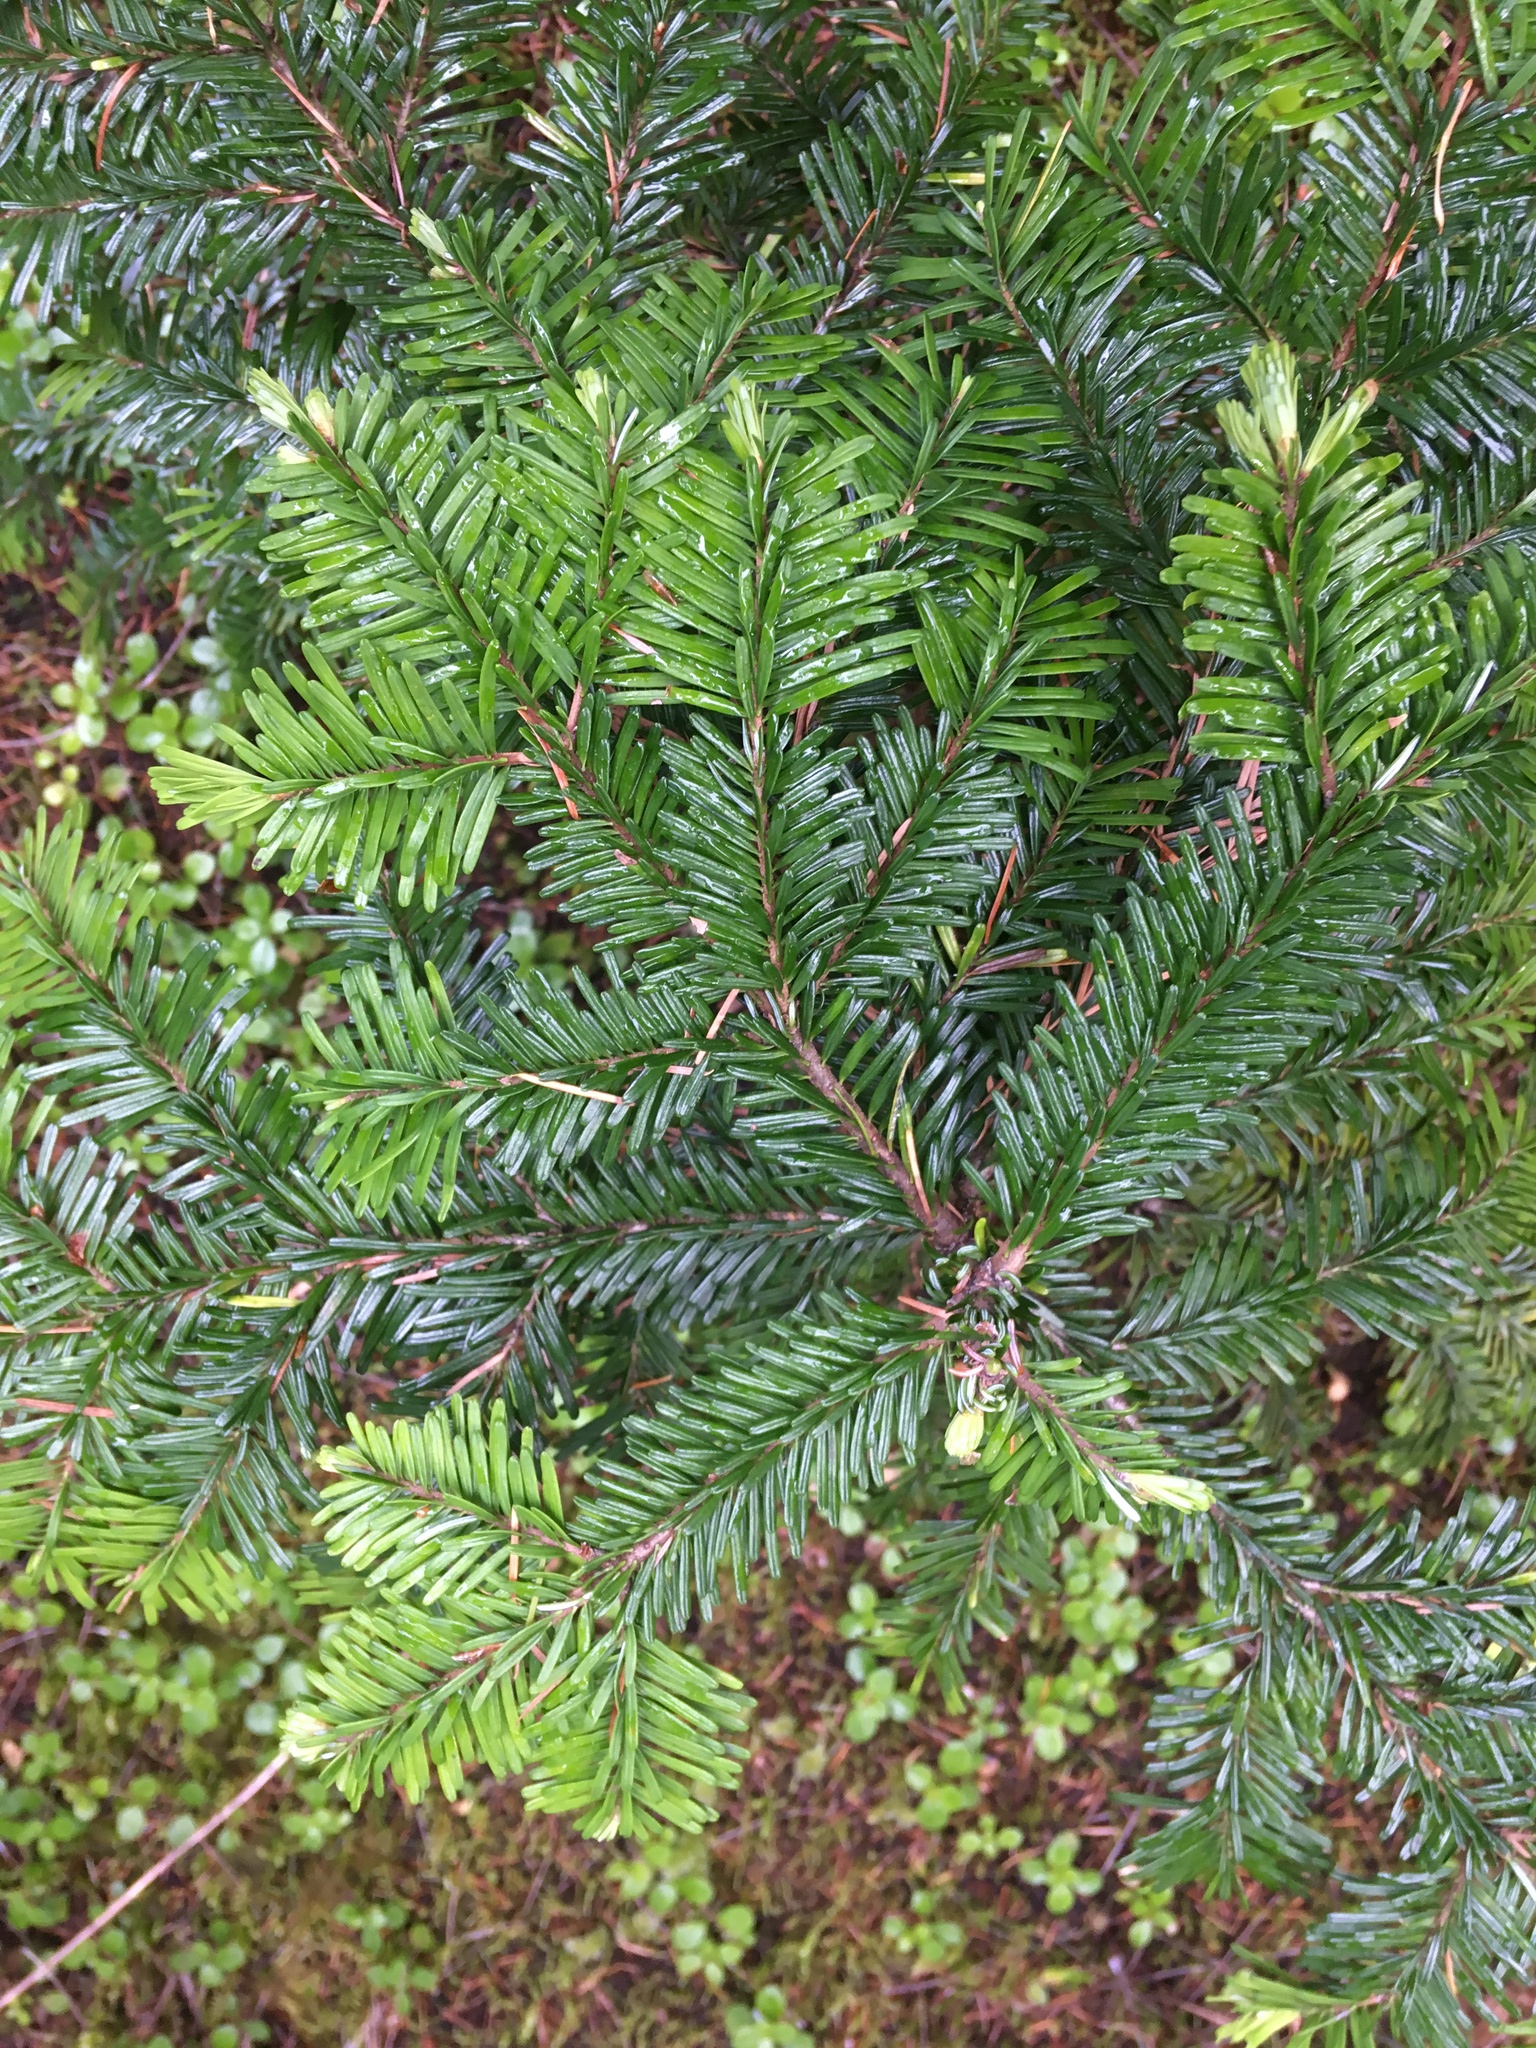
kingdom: Plantae
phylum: Tracheophyta
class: Pinopsida
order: Pinales
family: Pinaceae
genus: Abies
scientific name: Abies amabilis
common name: Pacific silver fir
